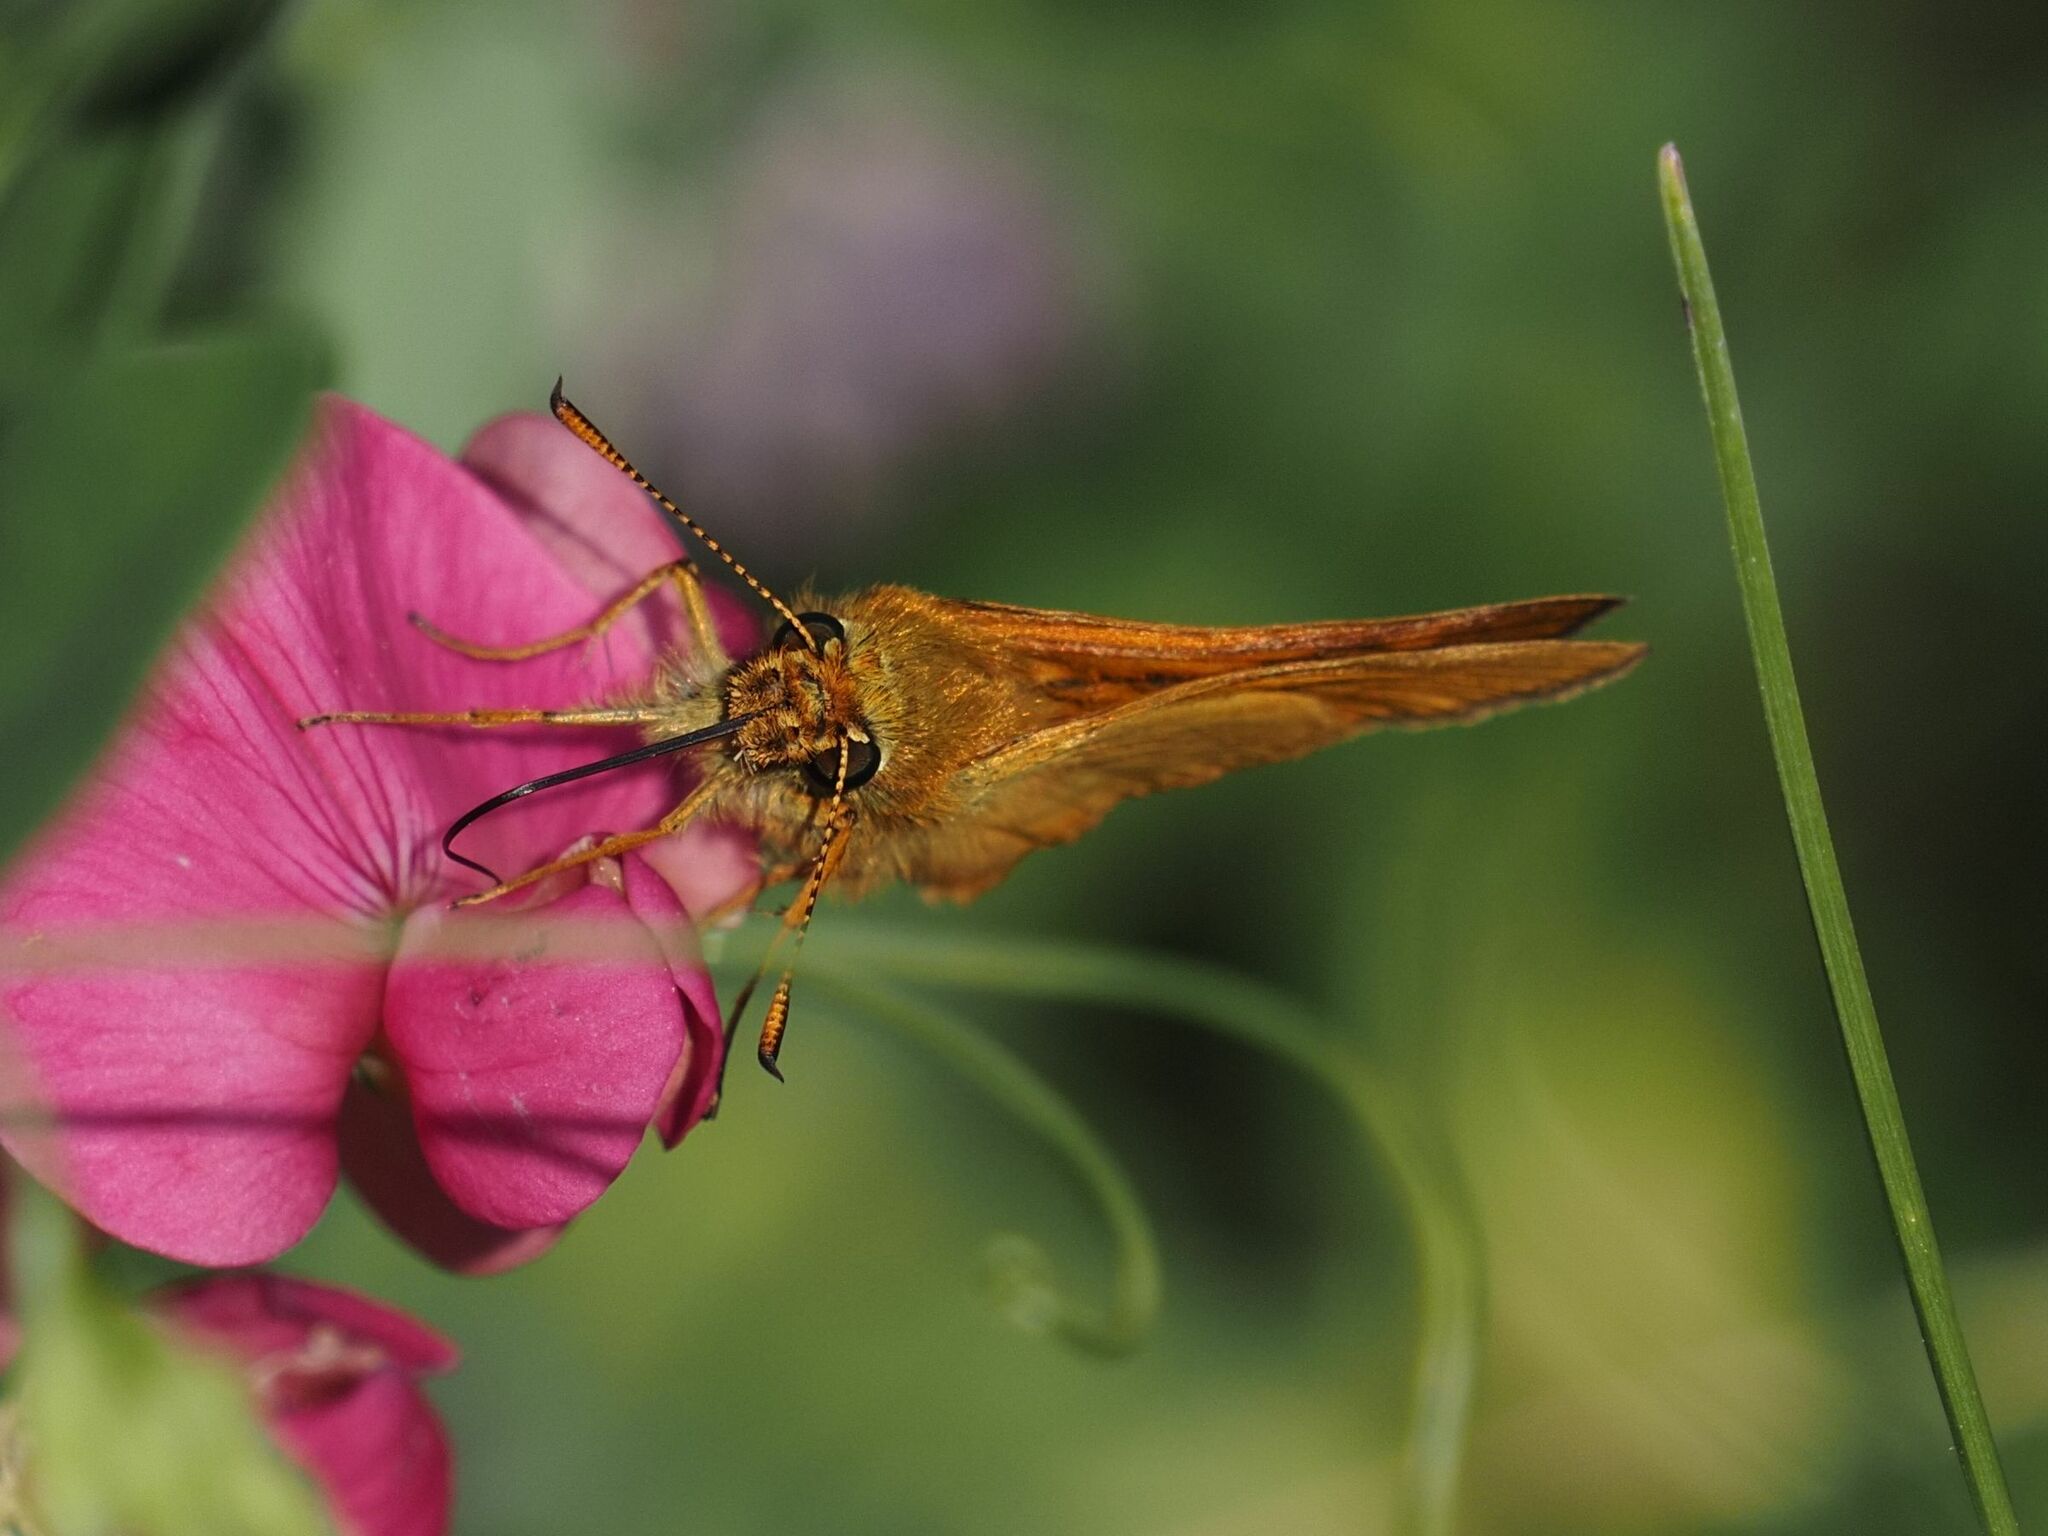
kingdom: Animalia
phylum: Arthropoda
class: Insecta
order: Lepidoptera
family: Hesperiidae
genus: Ochlodes
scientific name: Ochlodes venata
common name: Large skipper
